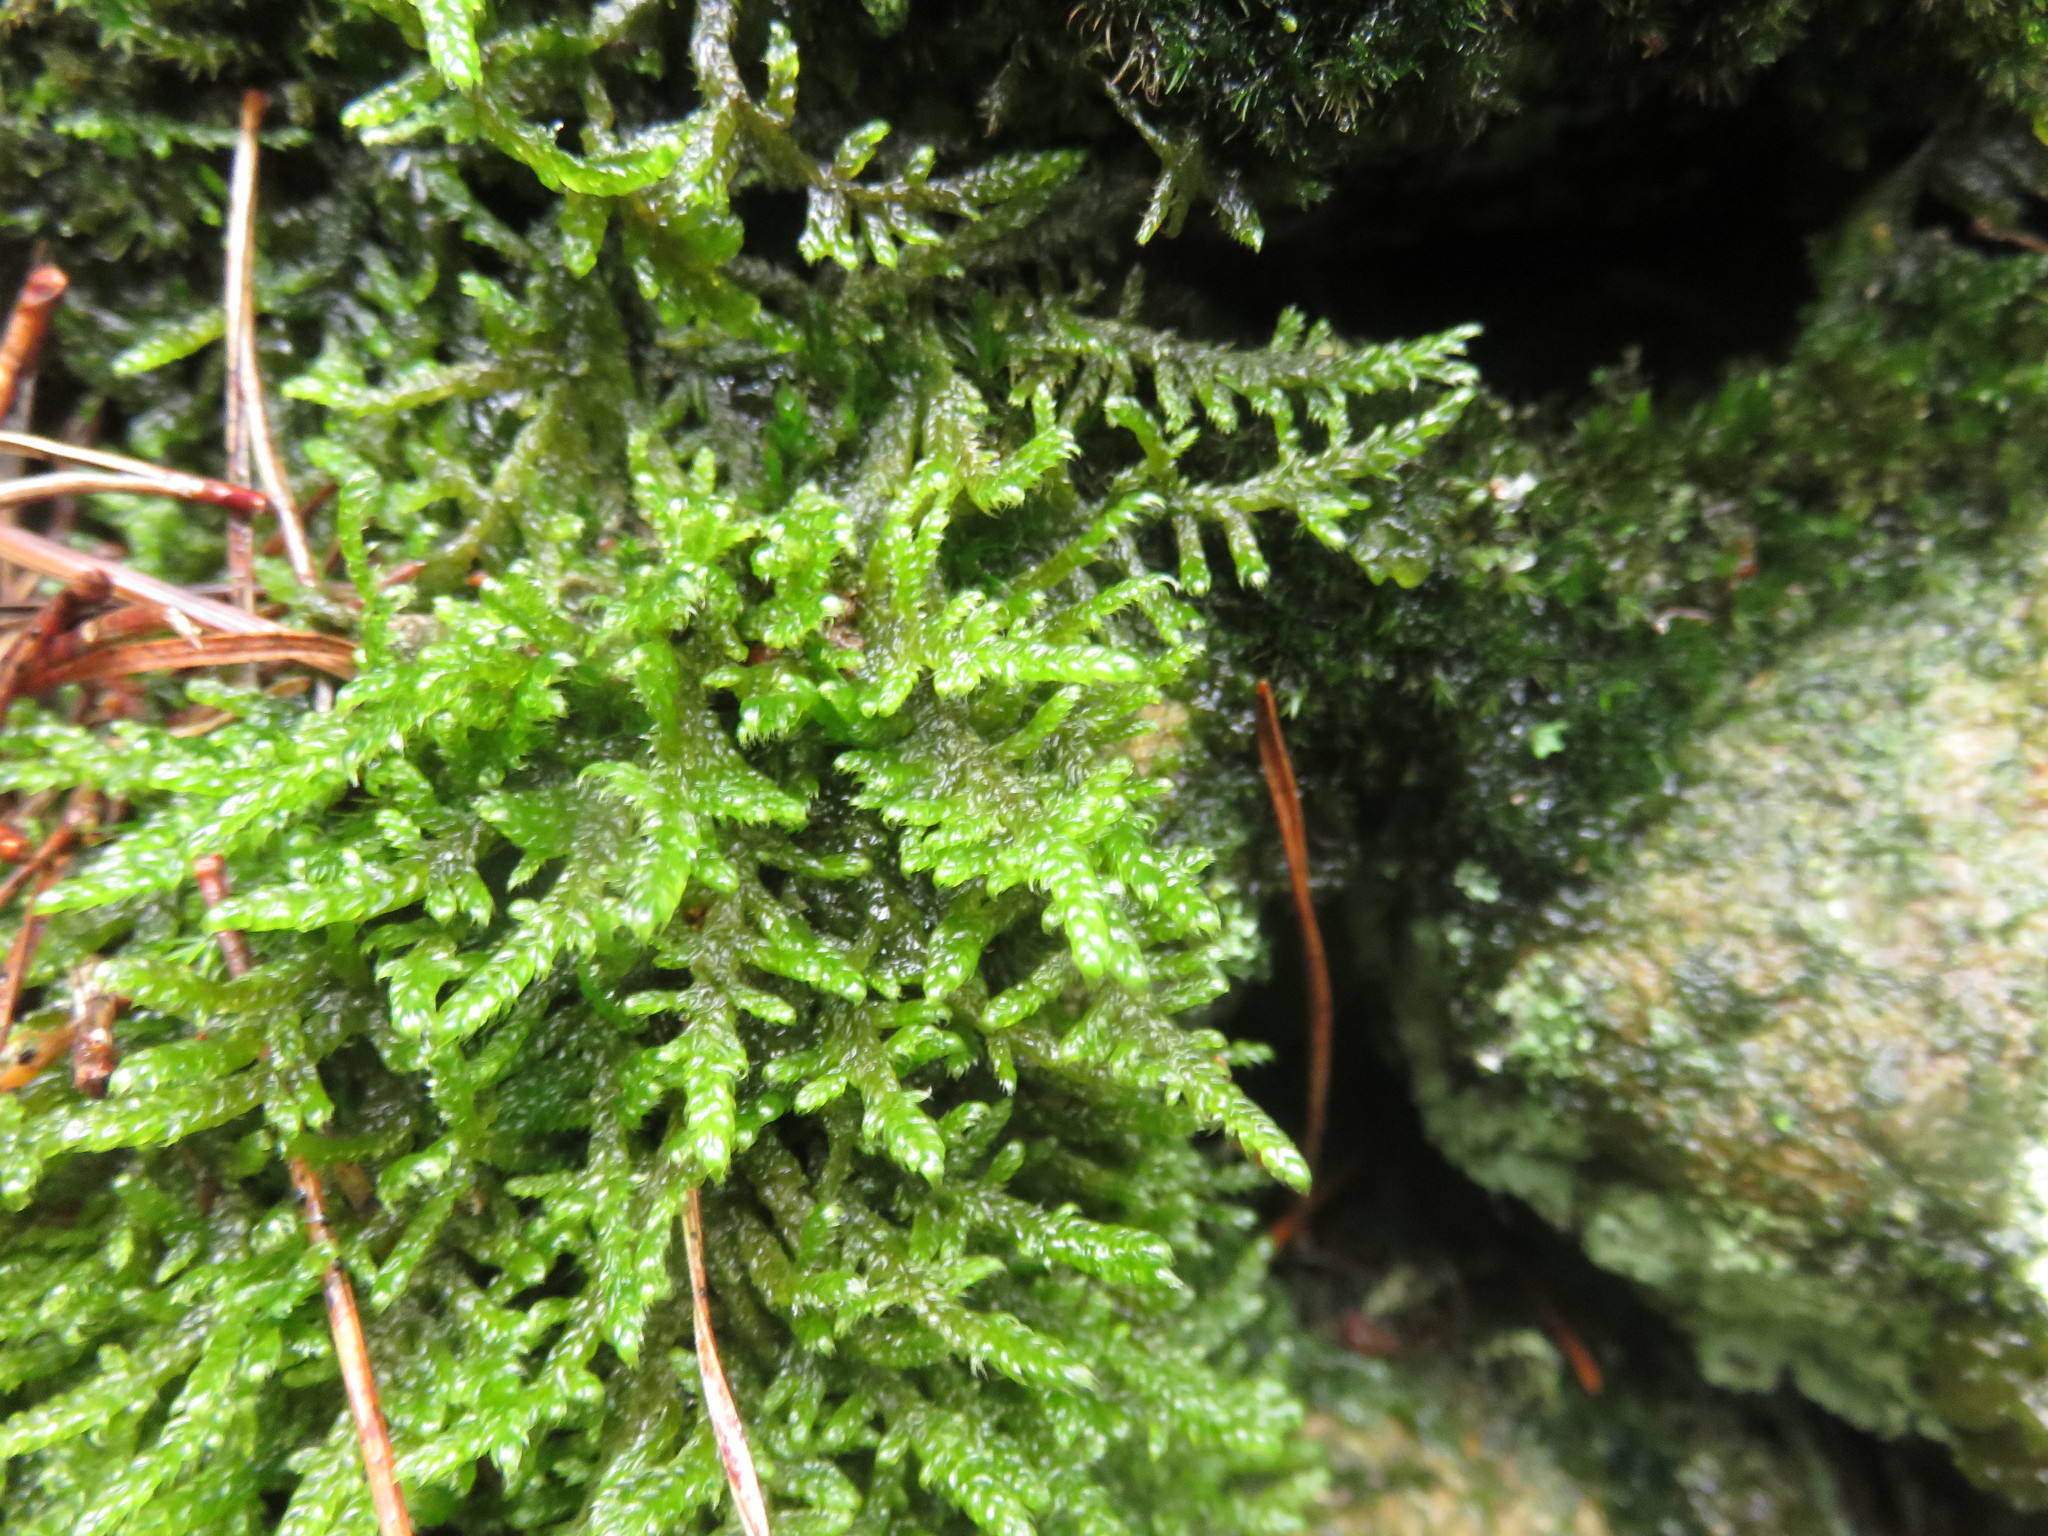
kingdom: Plantae
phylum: Bryophyta
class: Bryopsida
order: Hypnales
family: Hypnaceae
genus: Hypnum
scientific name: Hypnum cupressiforme
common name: Cypress-leaved plait-moss
